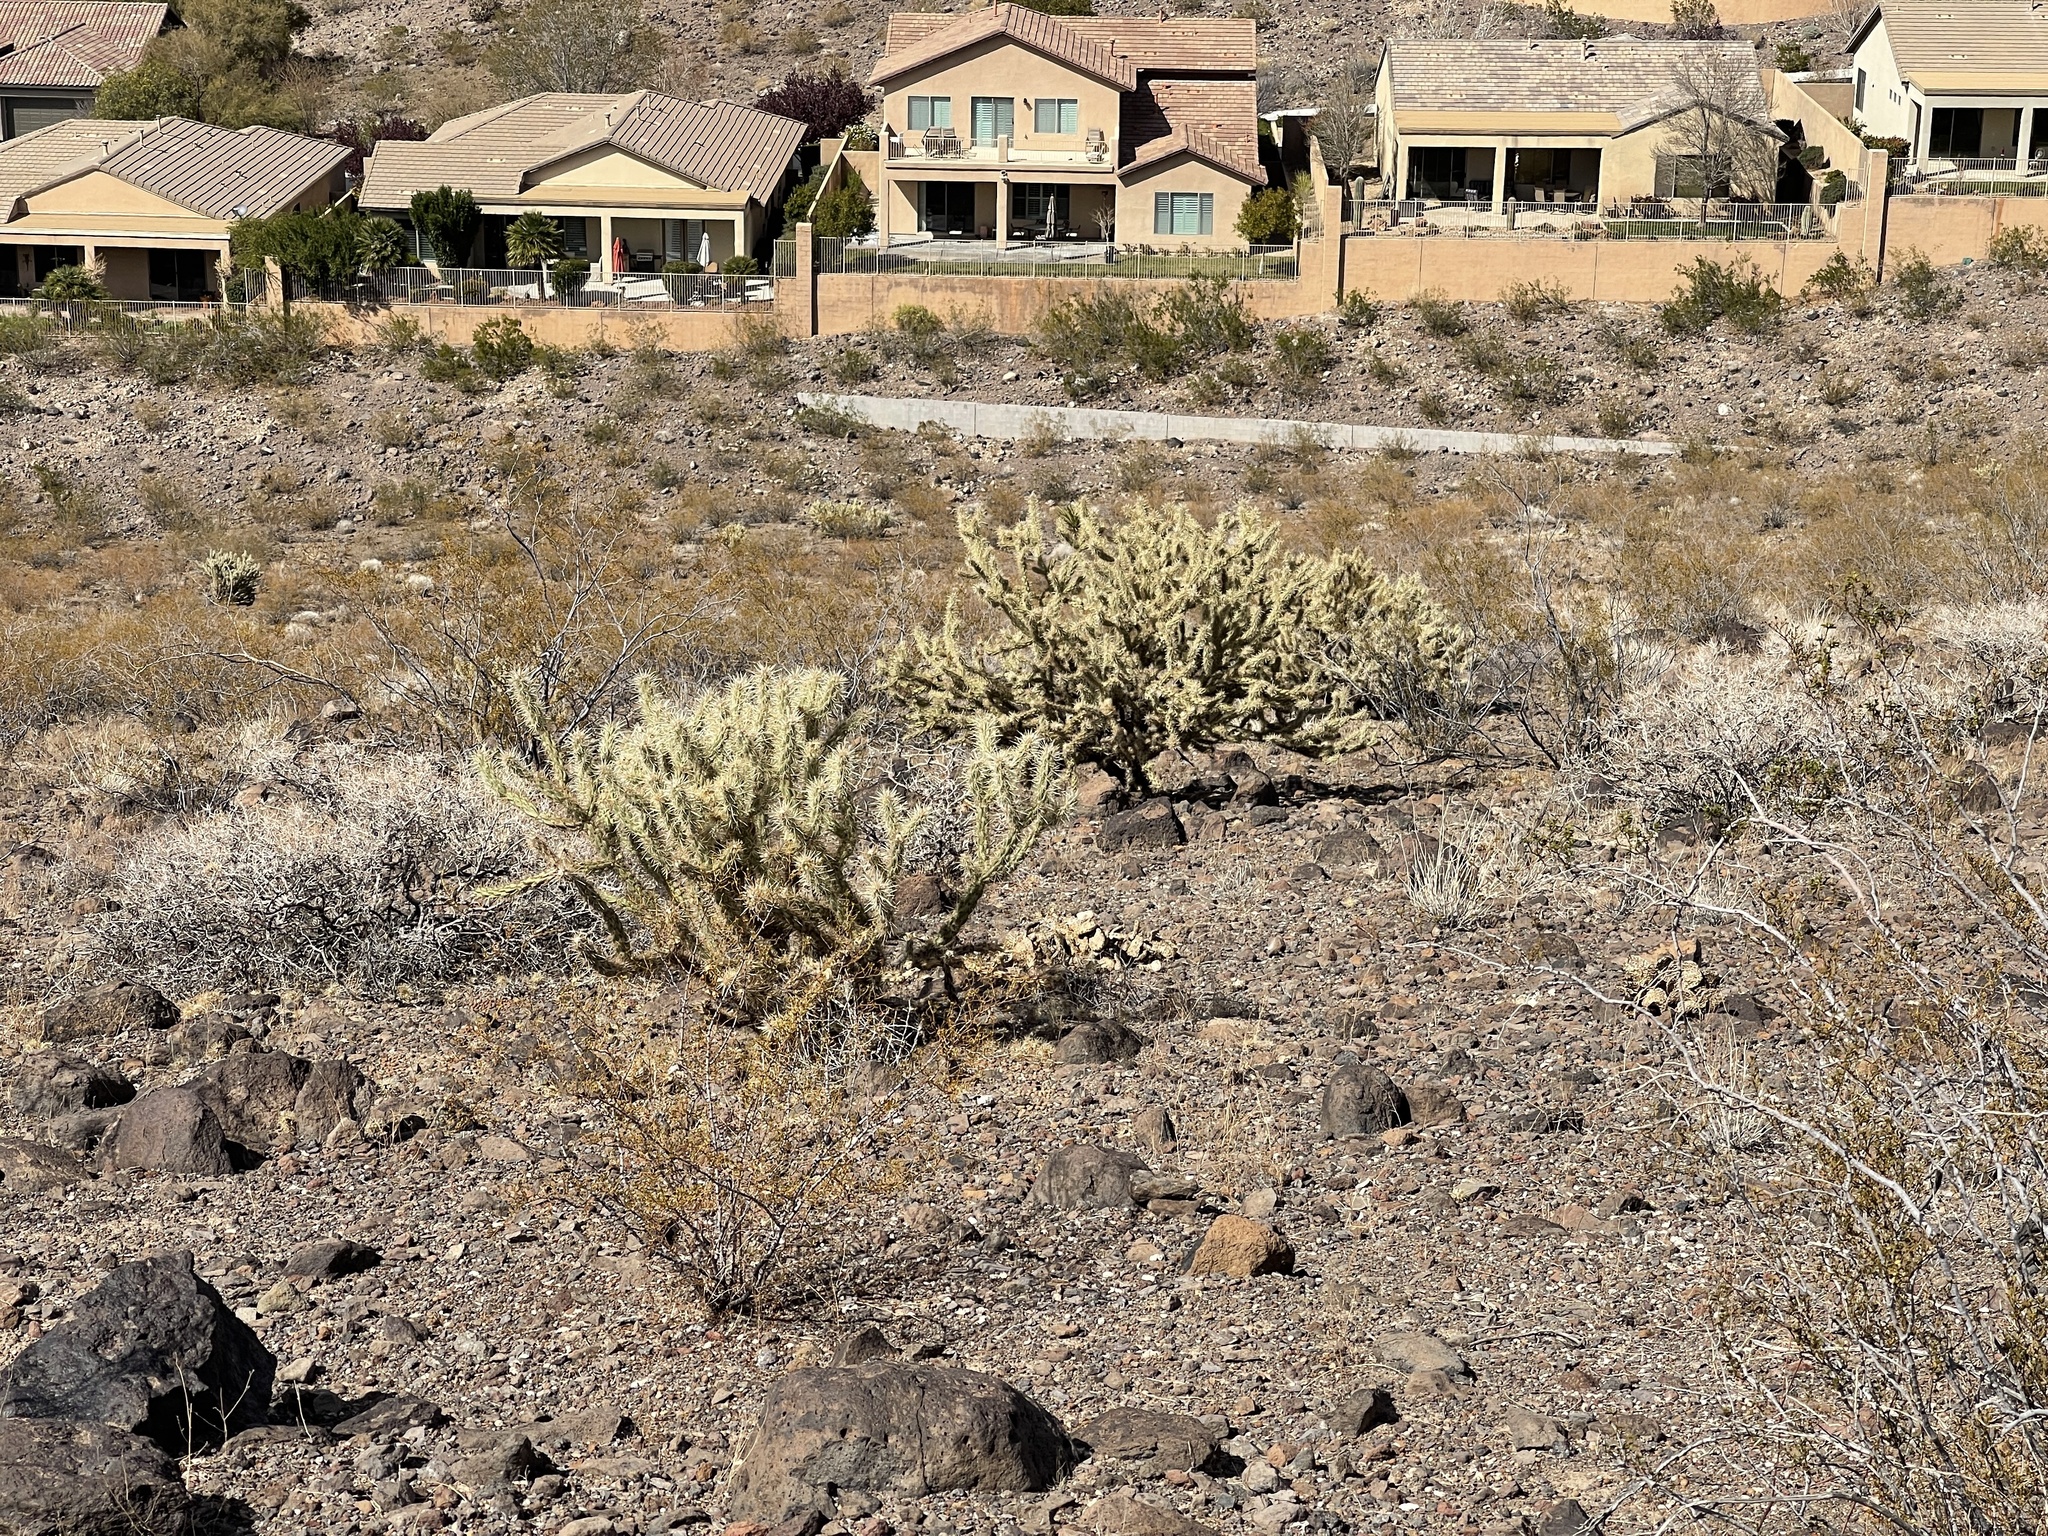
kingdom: Plantae
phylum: Tracheophyta
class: Magnoliopsida
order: Caryophyllales
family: Cactaceae
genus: Cylindropuntia
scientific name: Cylindropuntia acanthocarpa
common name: Buckhorn cholla
